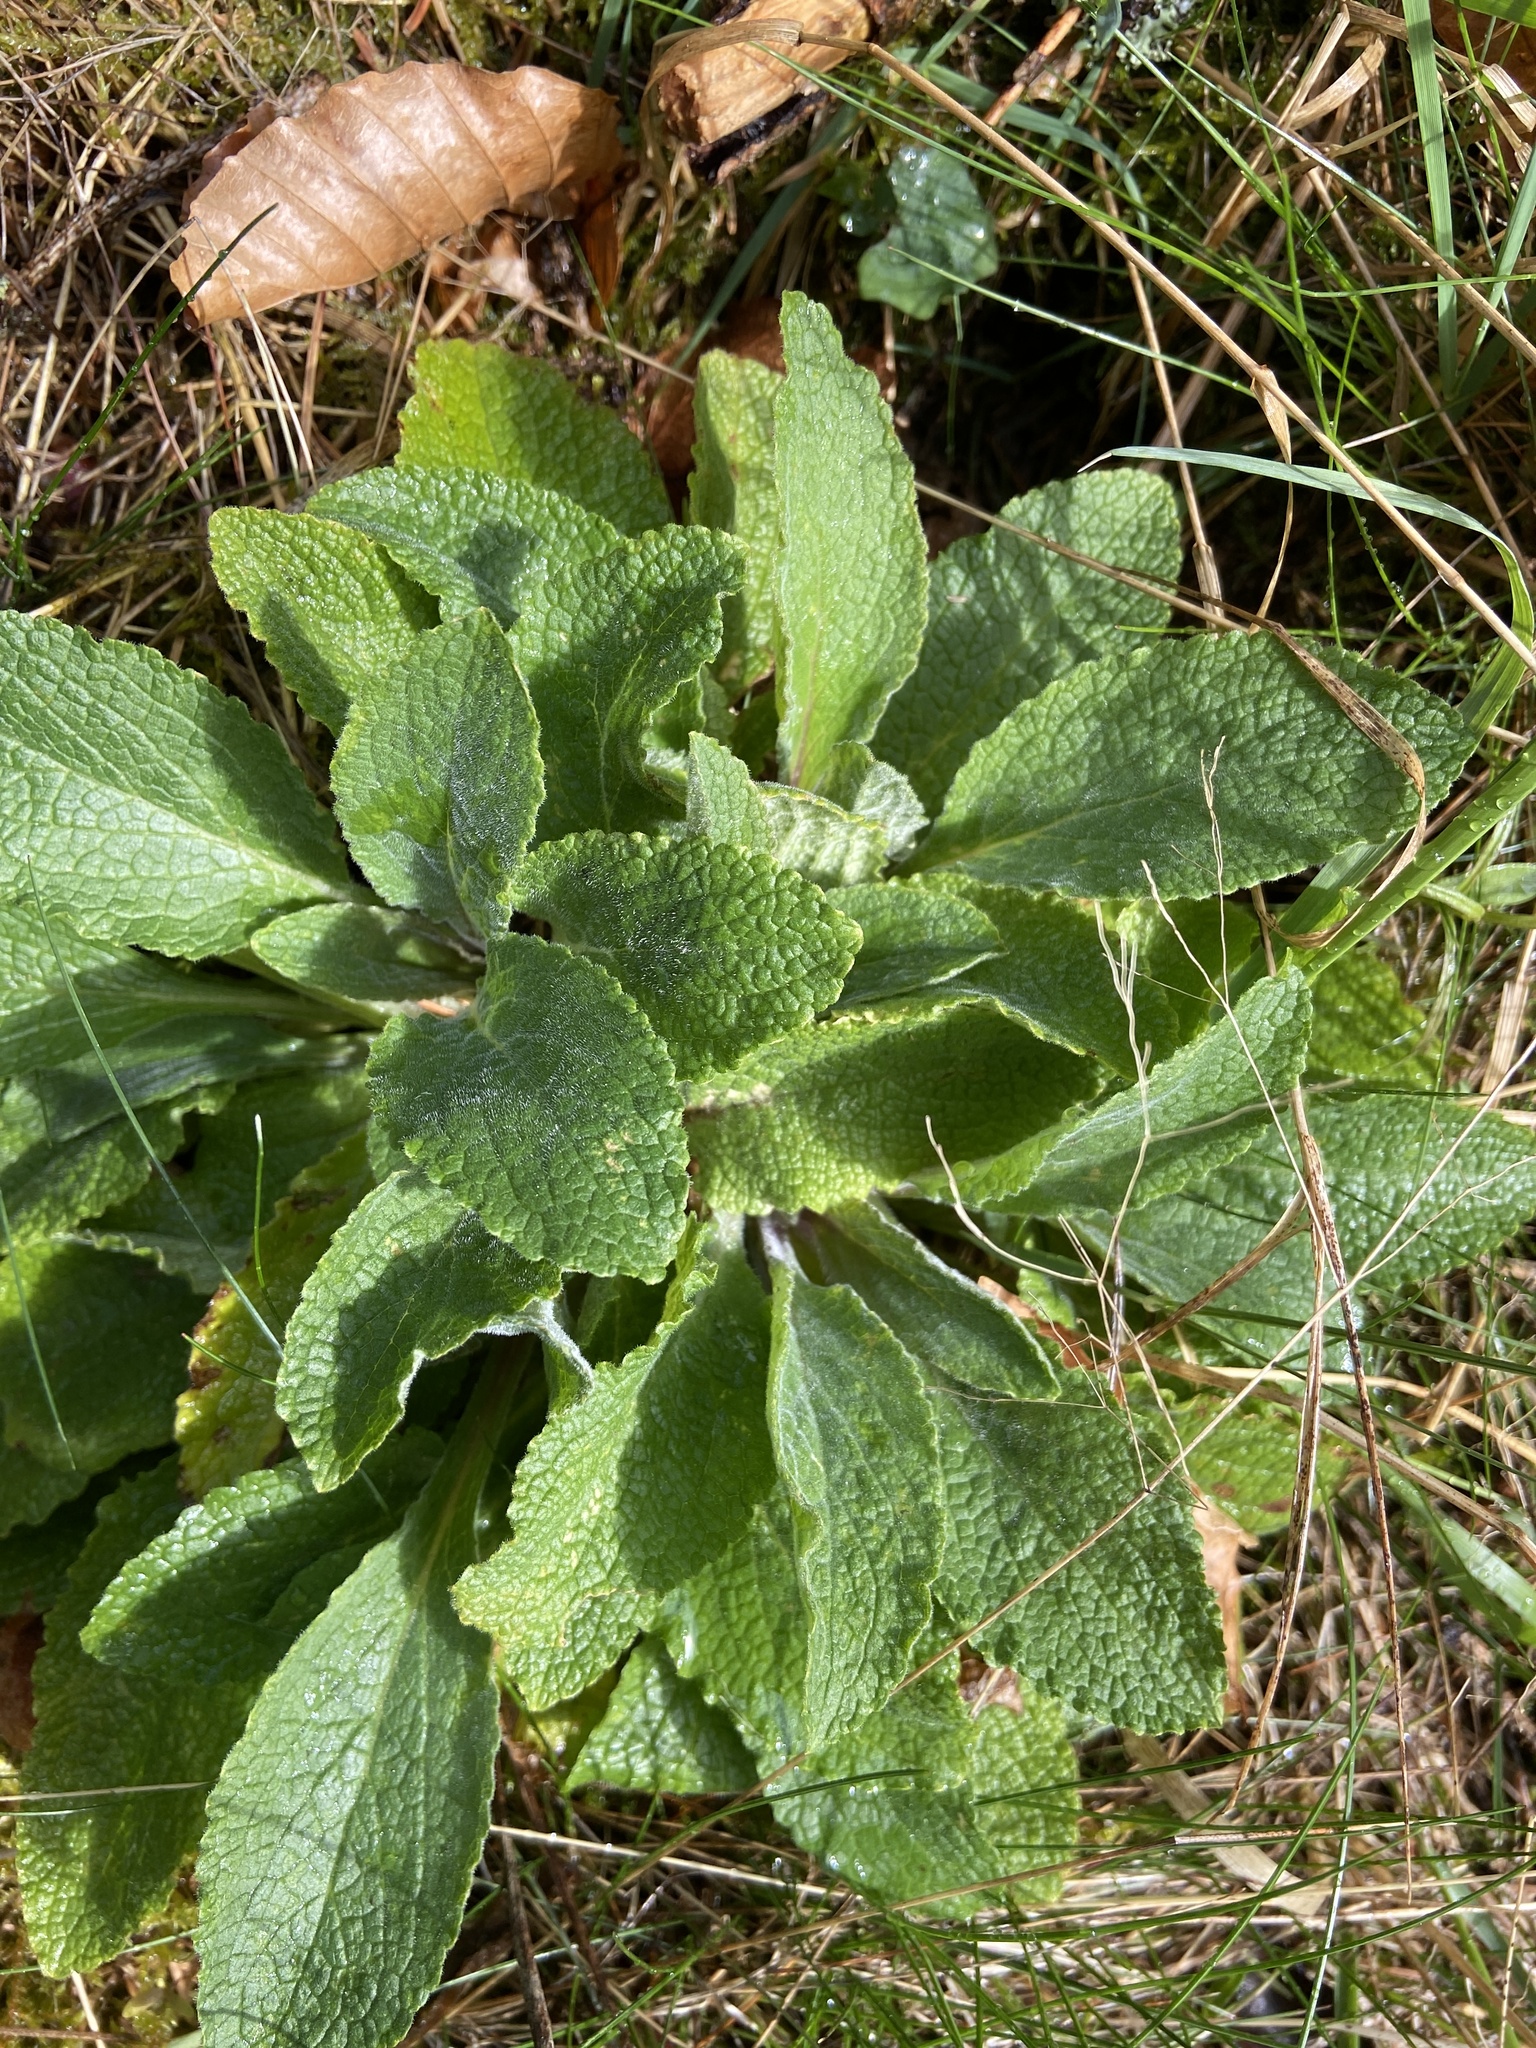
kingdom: Plantae
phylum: Tracheophyta
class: Magnoliopsida
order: Lamiales
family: Plantaginaceae
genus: Digitalis
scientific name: Digitalis purpurea
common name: Foxglove
